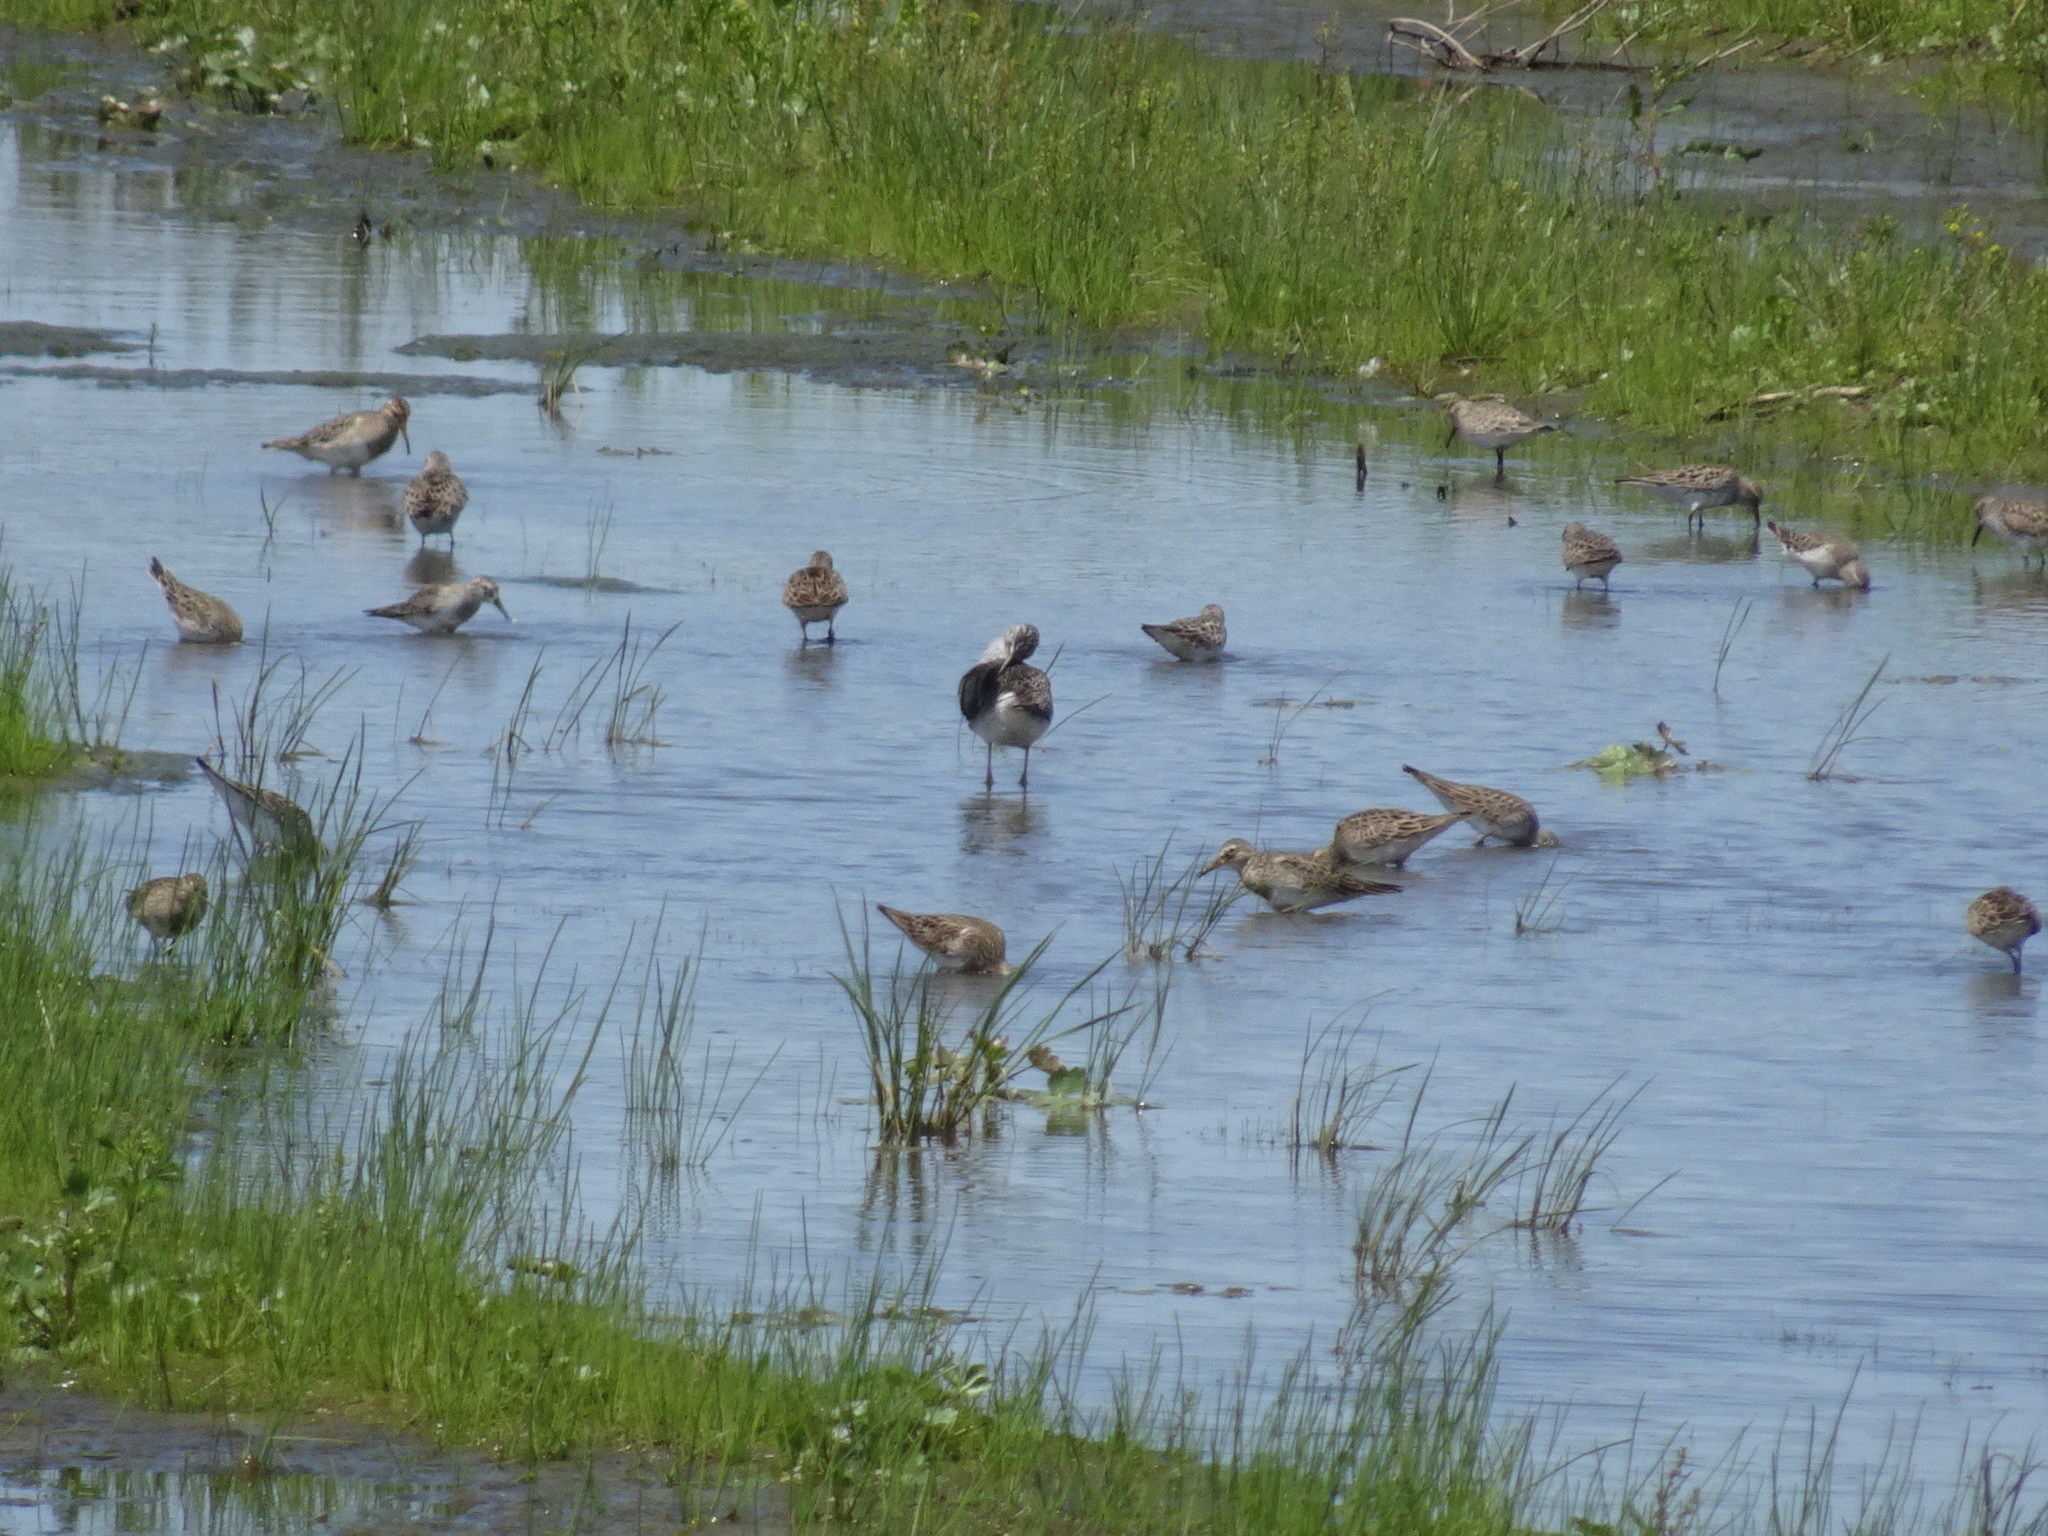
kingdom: Animalia
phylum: Chordata
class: Aves
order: Charadriiformes
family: Scolopacidae
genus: Tringa
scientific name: Tringa flavipes
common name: Lesser yellowlegs
